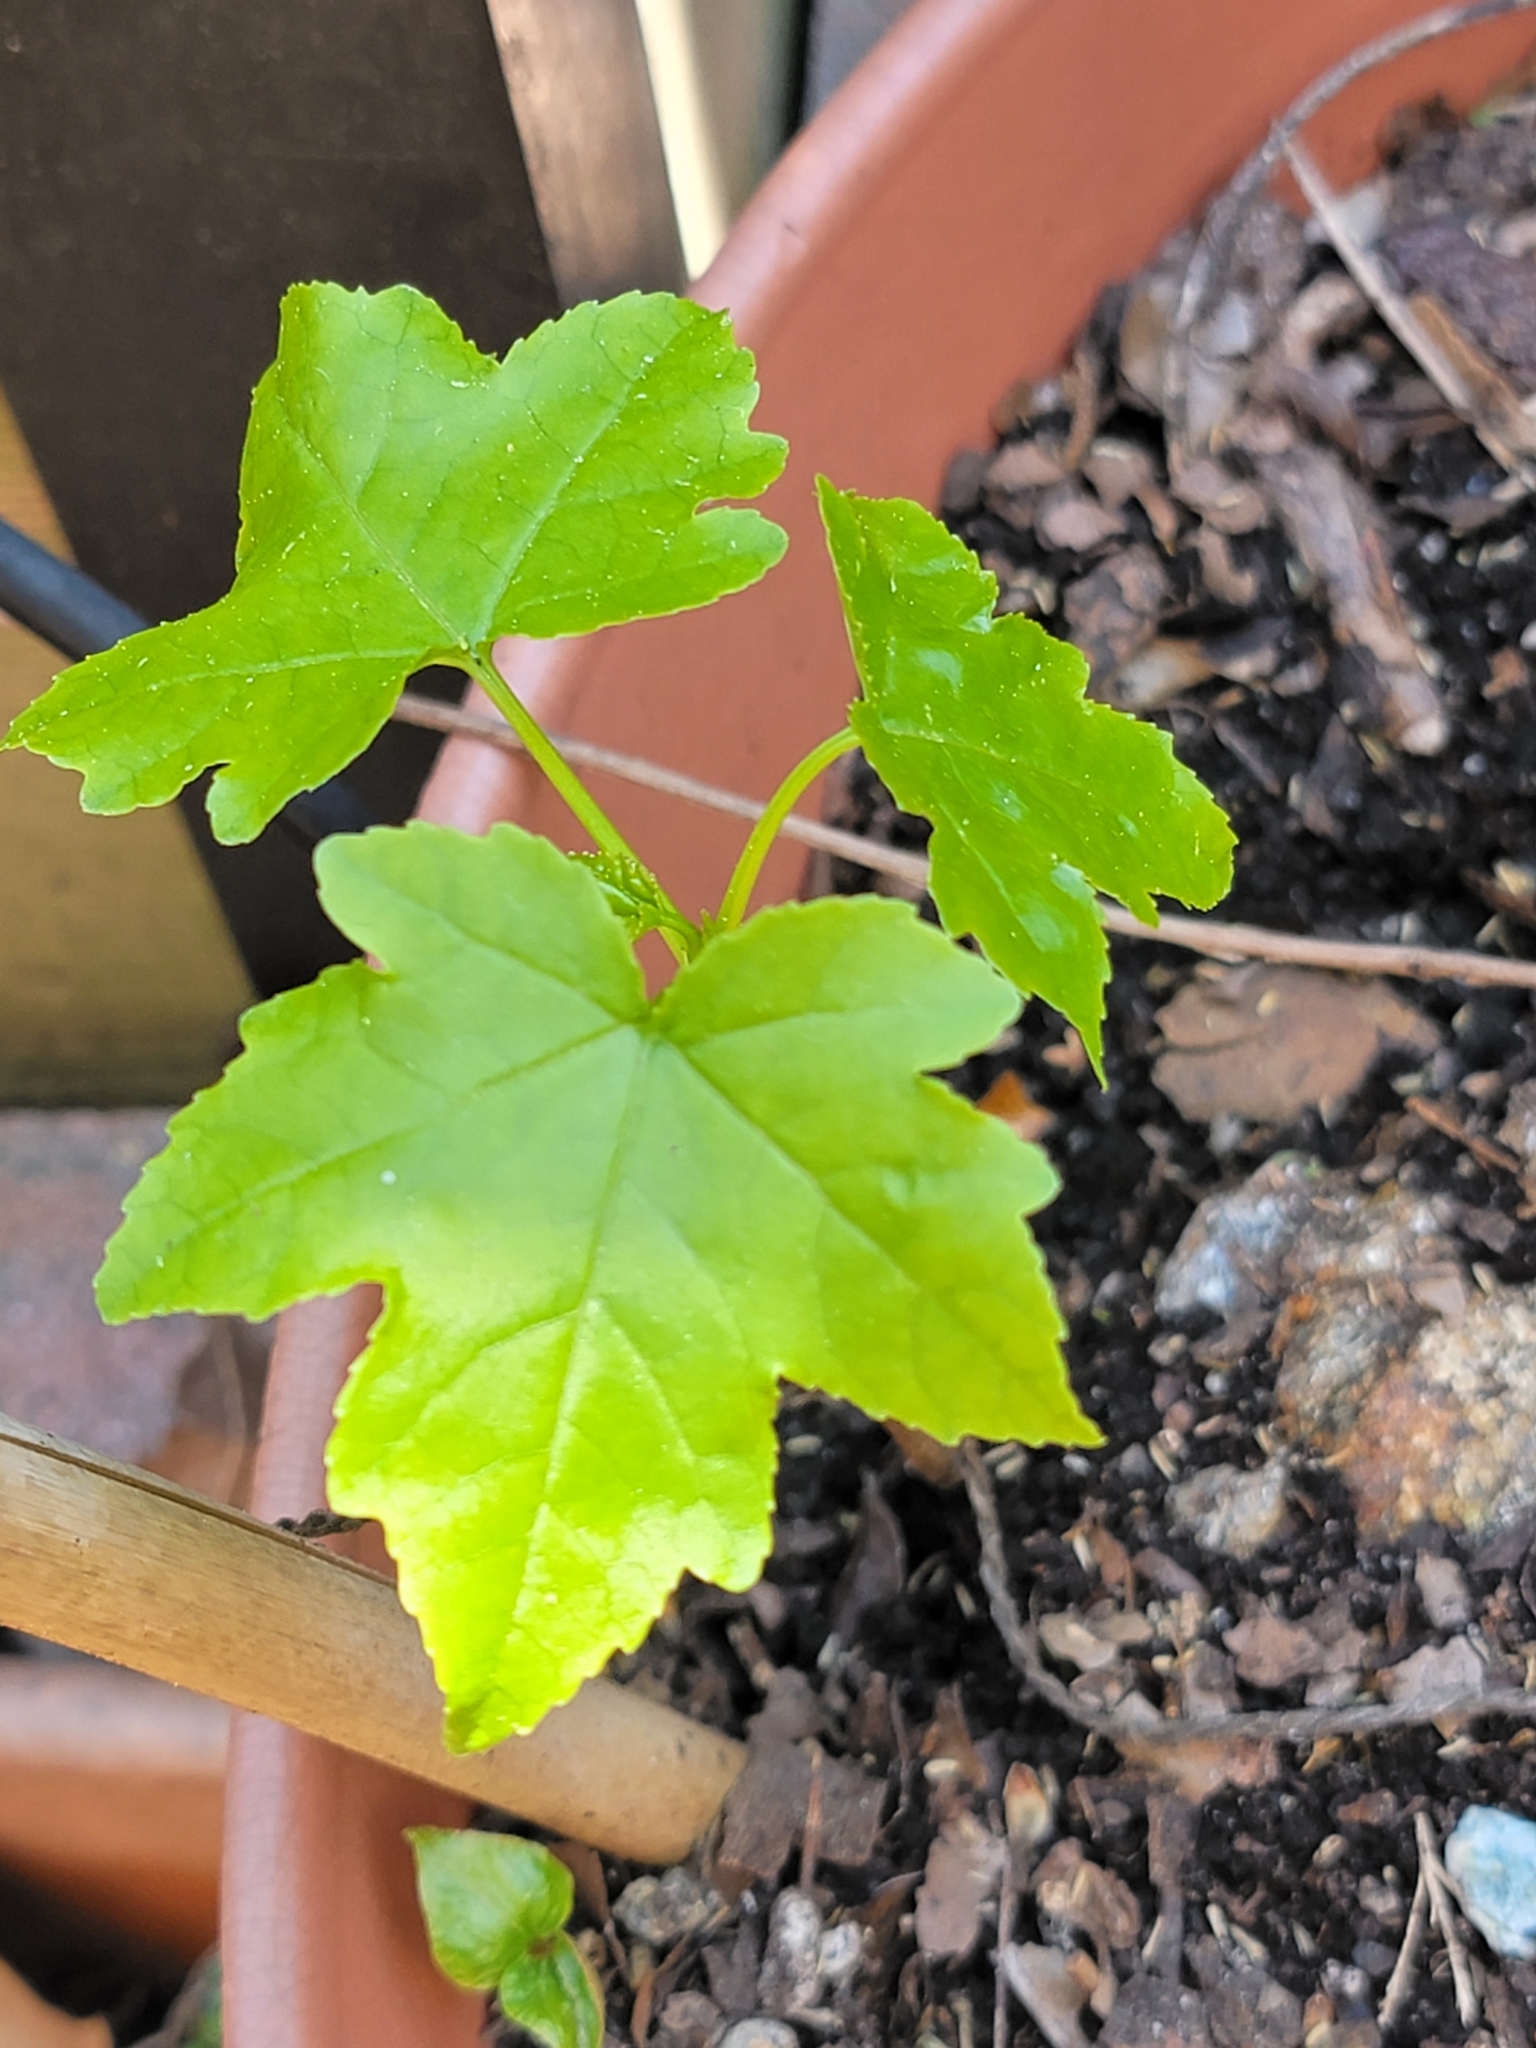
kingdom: Plantae
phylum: Tracheophyta
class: Magnoliopsida
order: Saxifragales
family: Altingiaceae
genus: Liquidambar
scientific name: Liquidambar styraciflua
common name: Sweet gum
